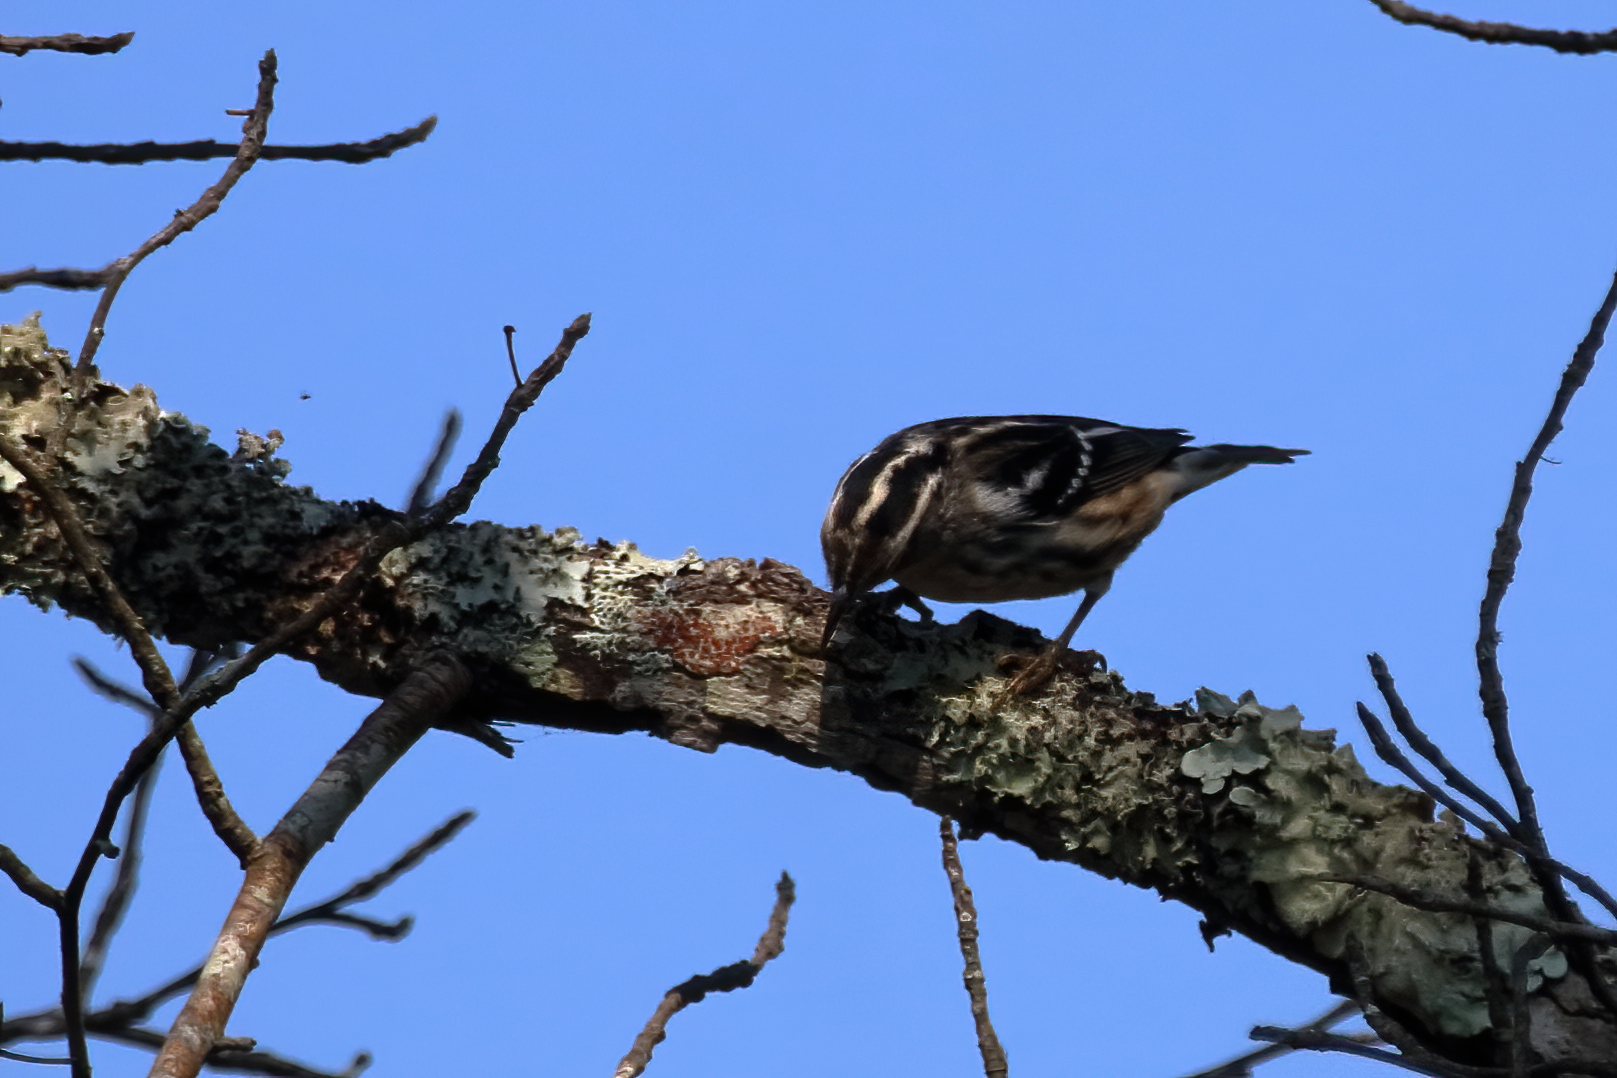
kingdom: Animalia
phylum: Chordata
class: Aves
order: Passeriformes
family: Parulidae
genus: Mniotilta
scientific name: Mniotilta varia
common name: Black-and-white warbler
